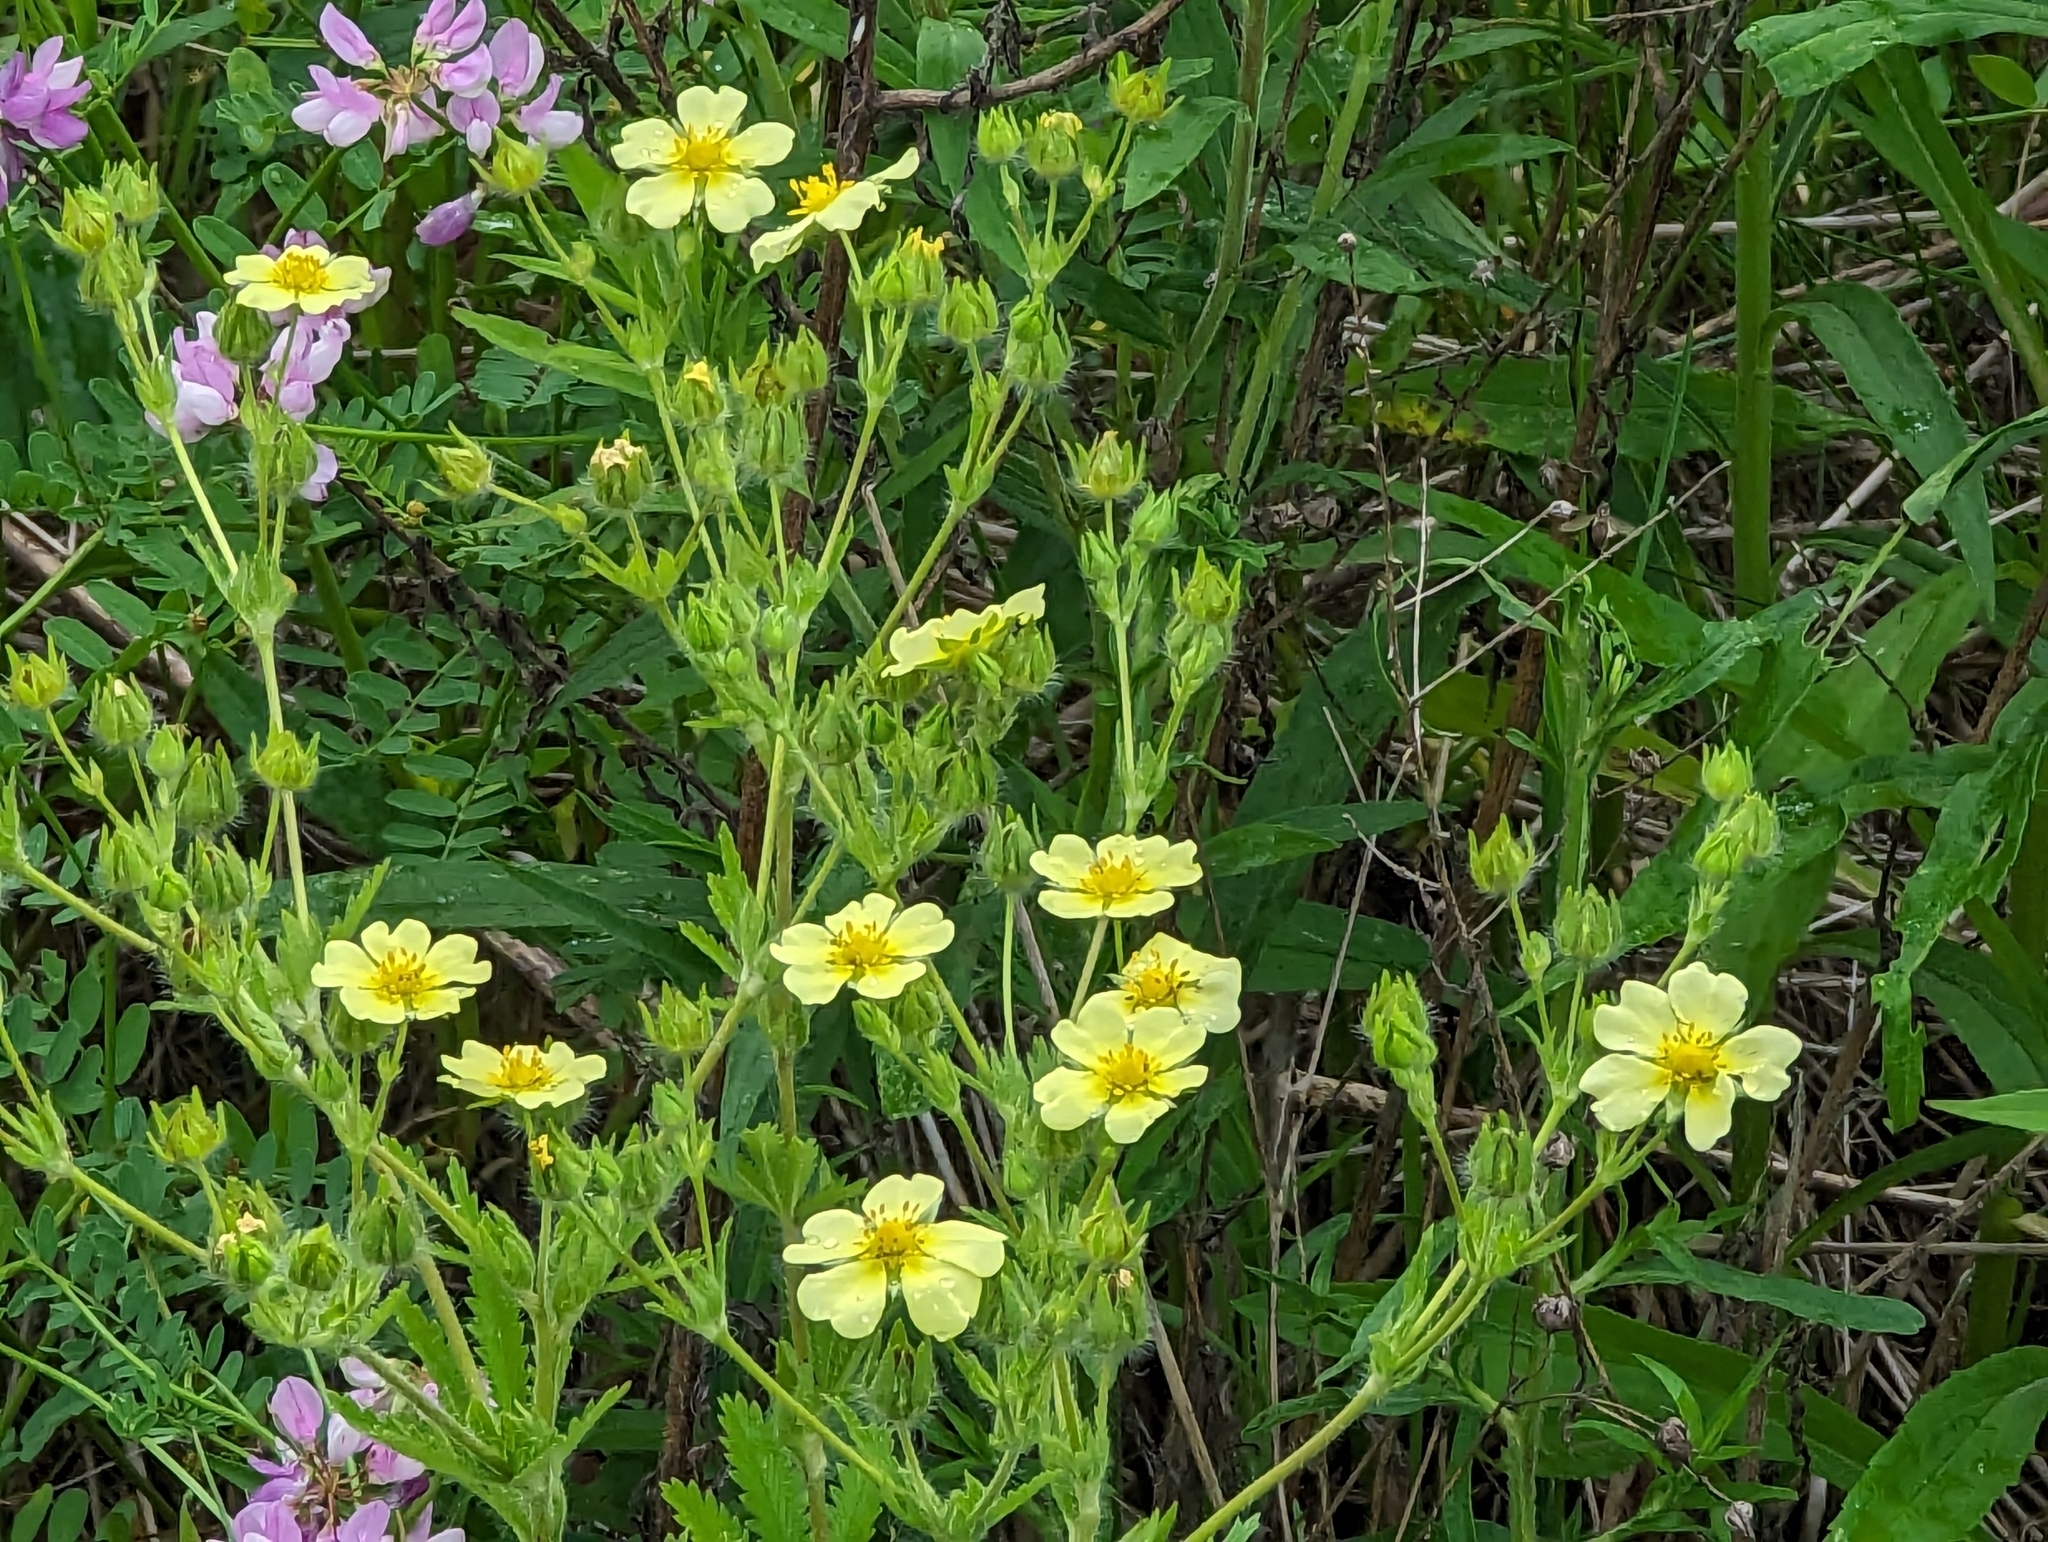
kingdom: Plantae
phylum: Tracheophyta
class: Magnoliopsida
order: Rosales
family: Rosaceae
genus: Potentilla
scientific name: Potentilla recta
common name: Sulphur cinquefoil
